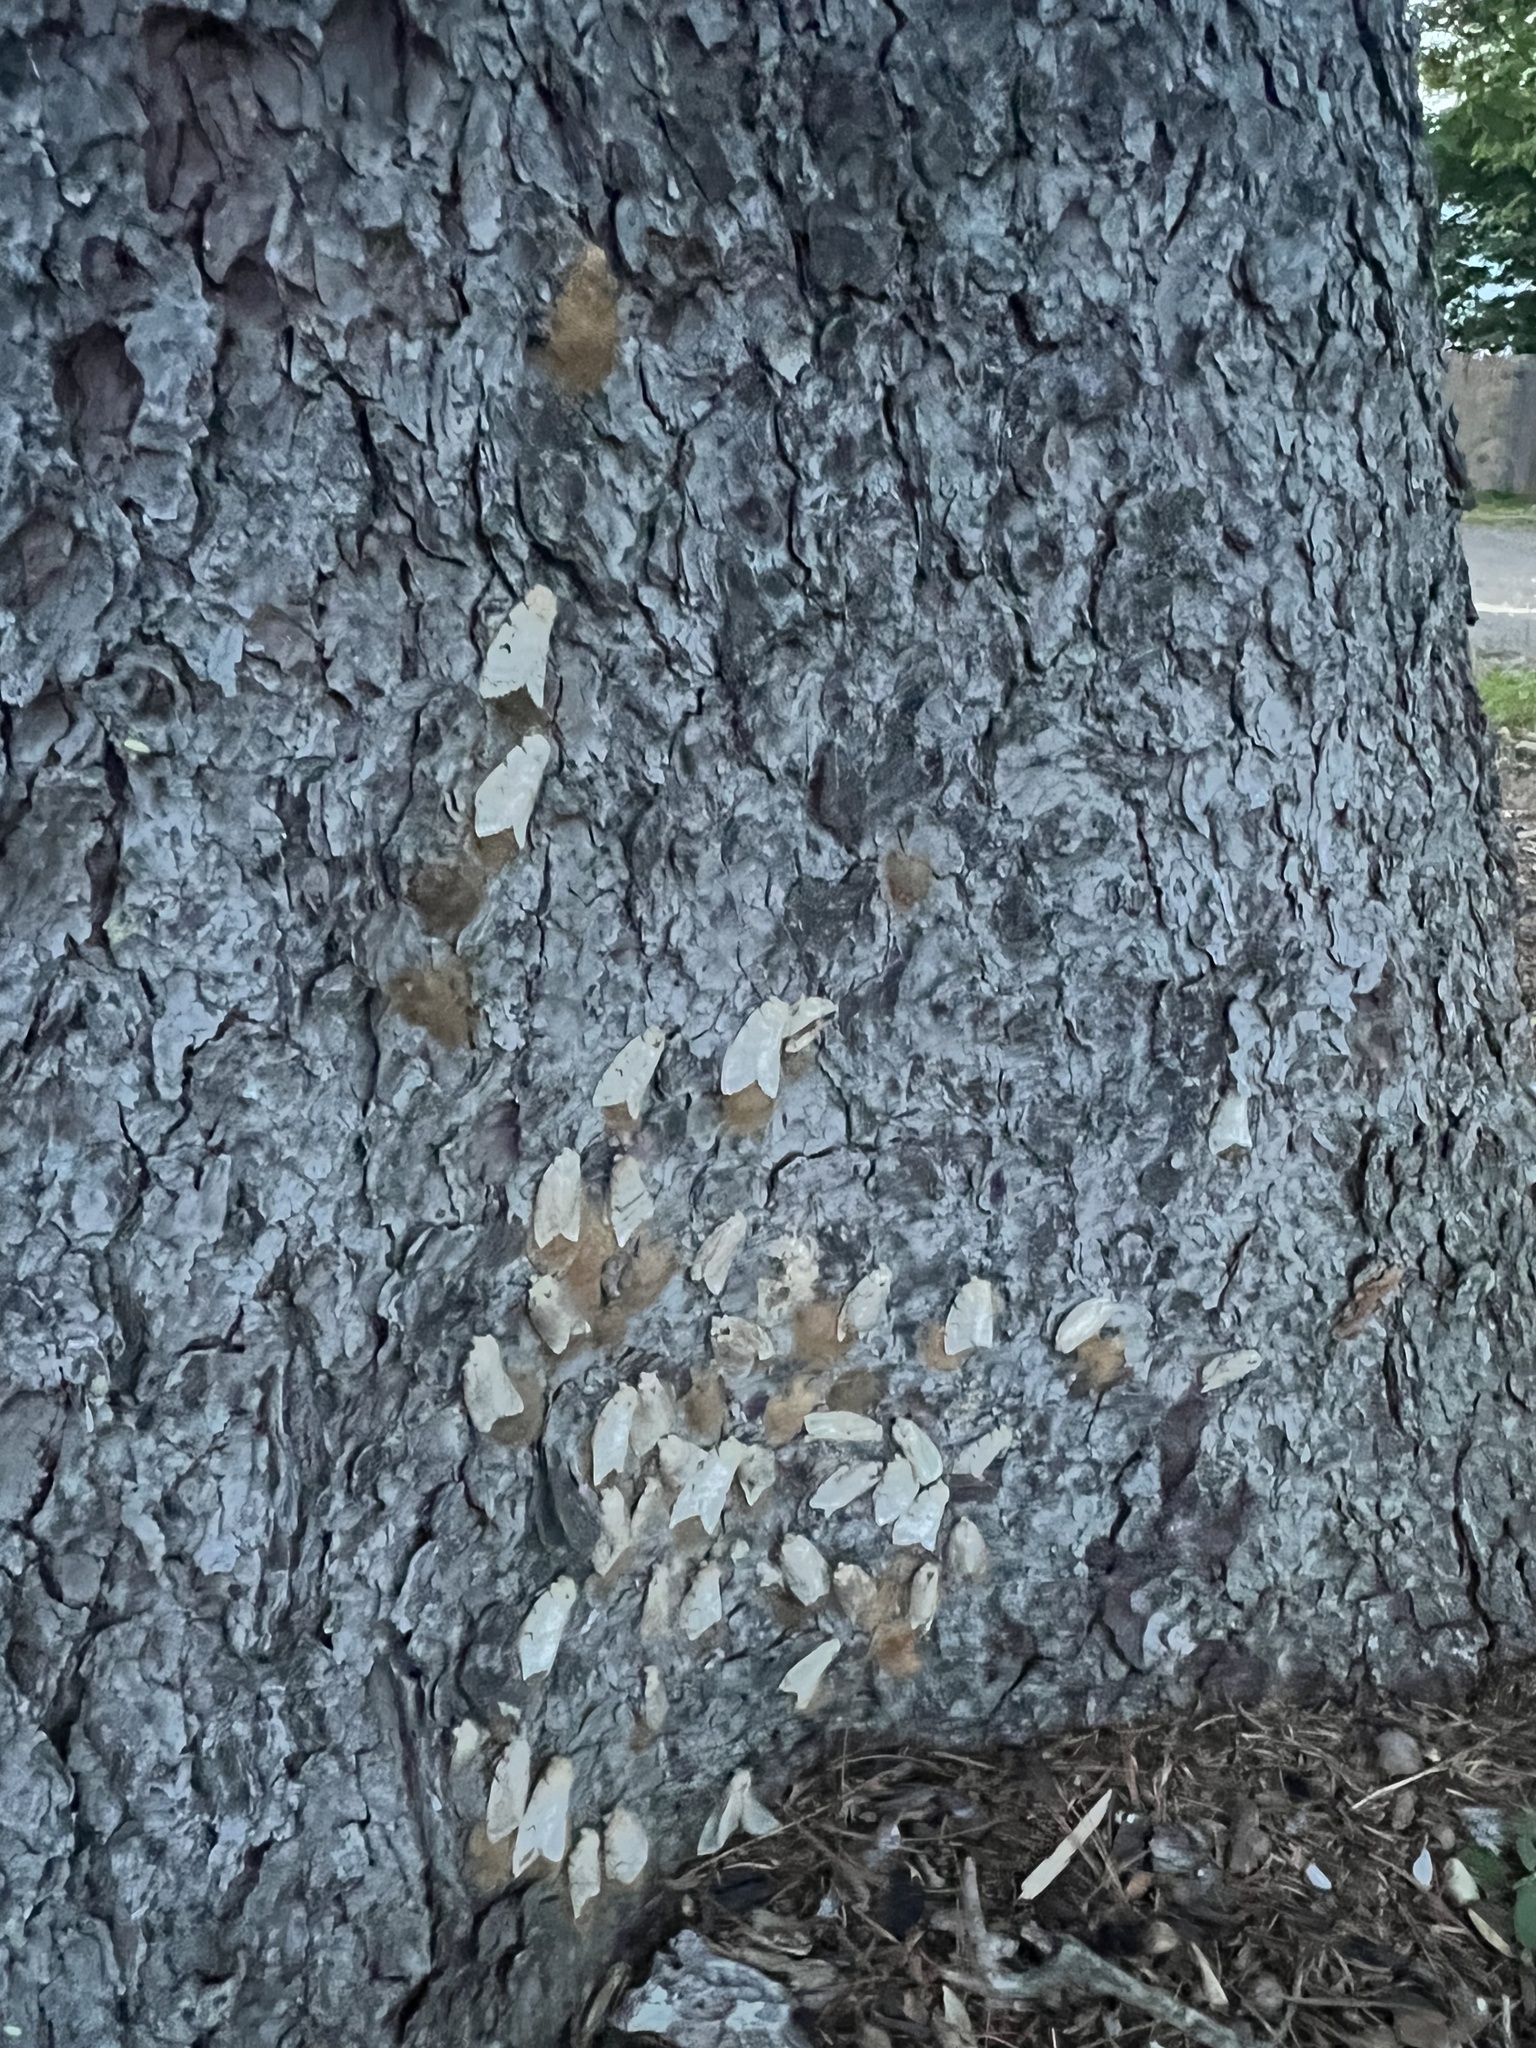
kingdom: Animalia
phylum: Arthropoda
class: Insecta
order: Lepidoptera
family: Erebidae
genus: Lymantria
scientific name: Lymantria dispar
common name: Gypsy moth
